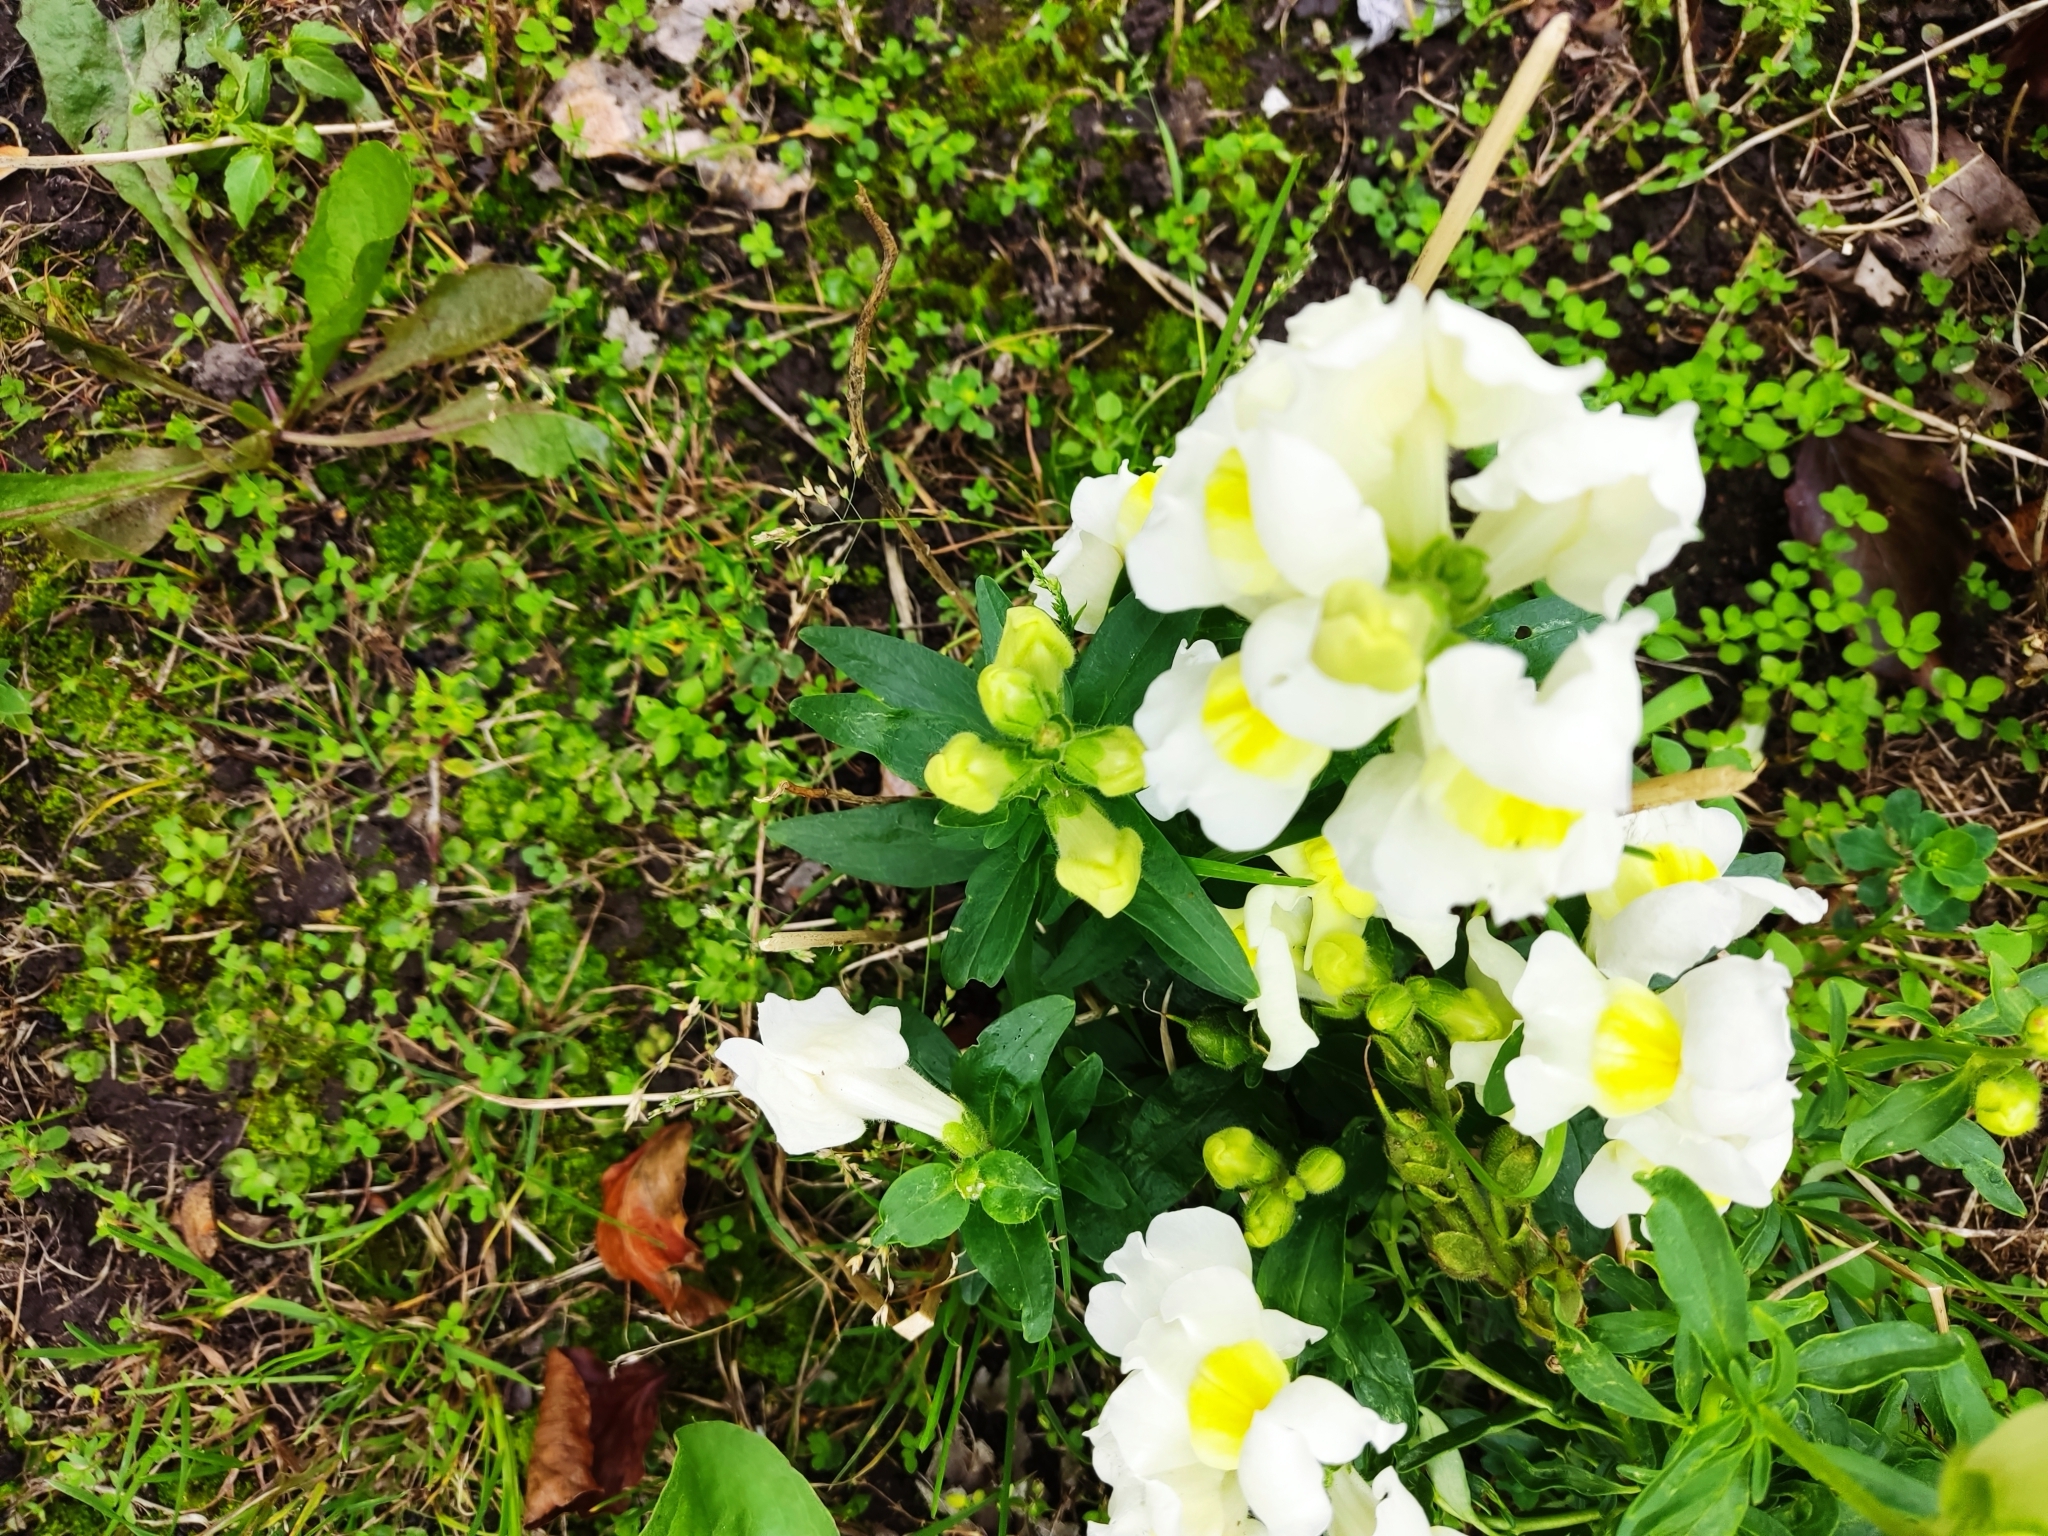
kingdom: Plantae
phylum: Tracheophyta
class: Magnoliopsida
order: Lamiales
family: Plantaginaceae
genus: Antirrhinum
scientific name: Antirrhinum majus
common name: Snapdragon
